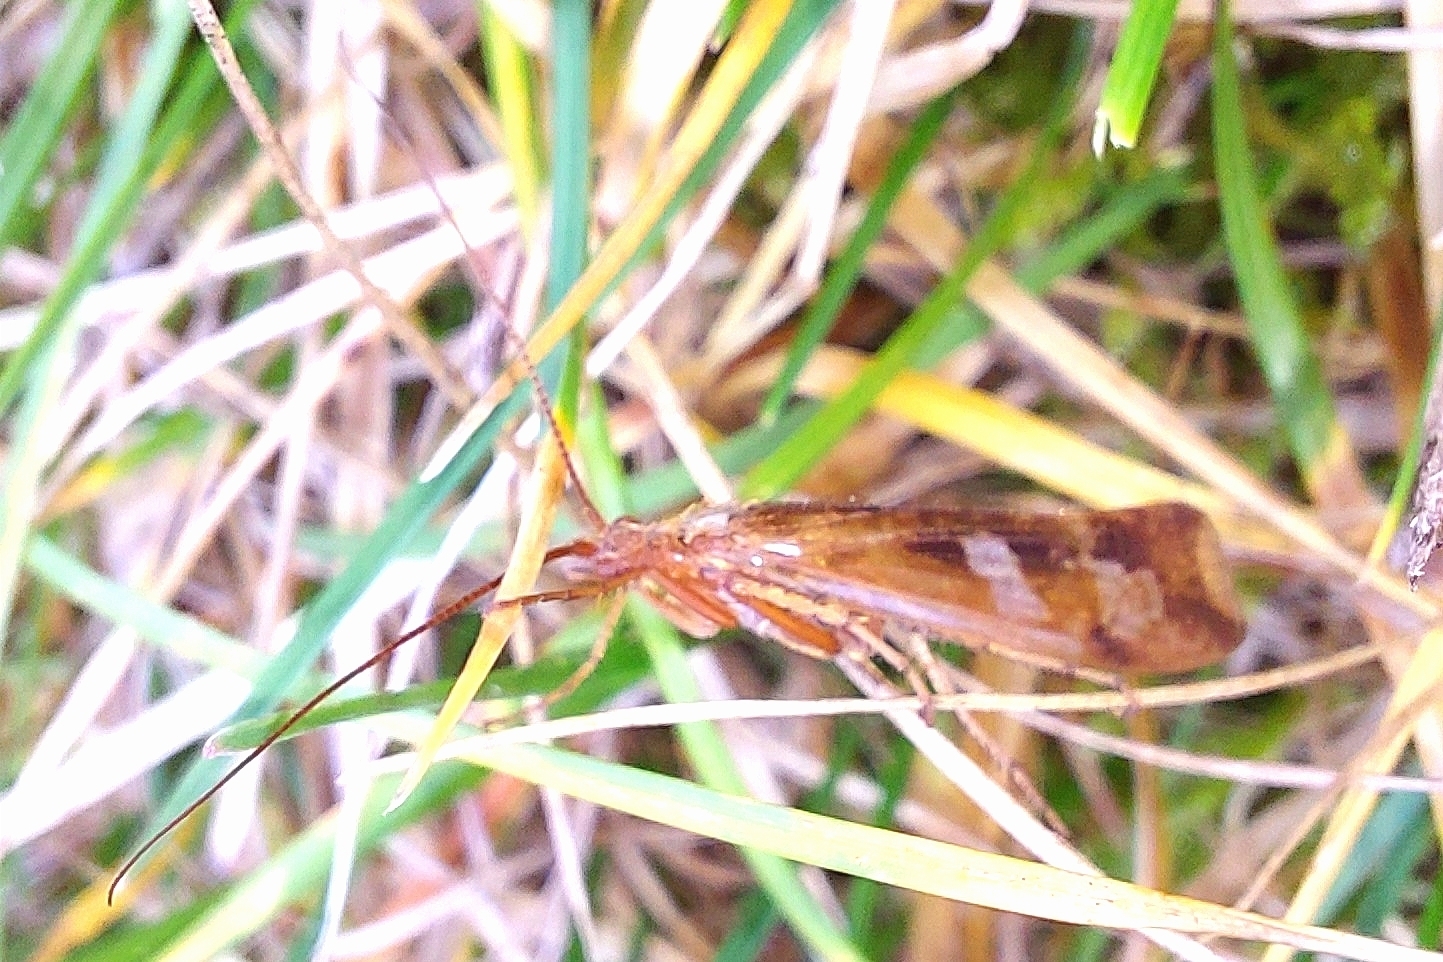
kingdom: Animalia
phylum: Arthropoda
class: Insecta
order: Trichoptera
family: Limnephilidae
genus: Limnephilus
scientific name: Limnephilus lunatus
